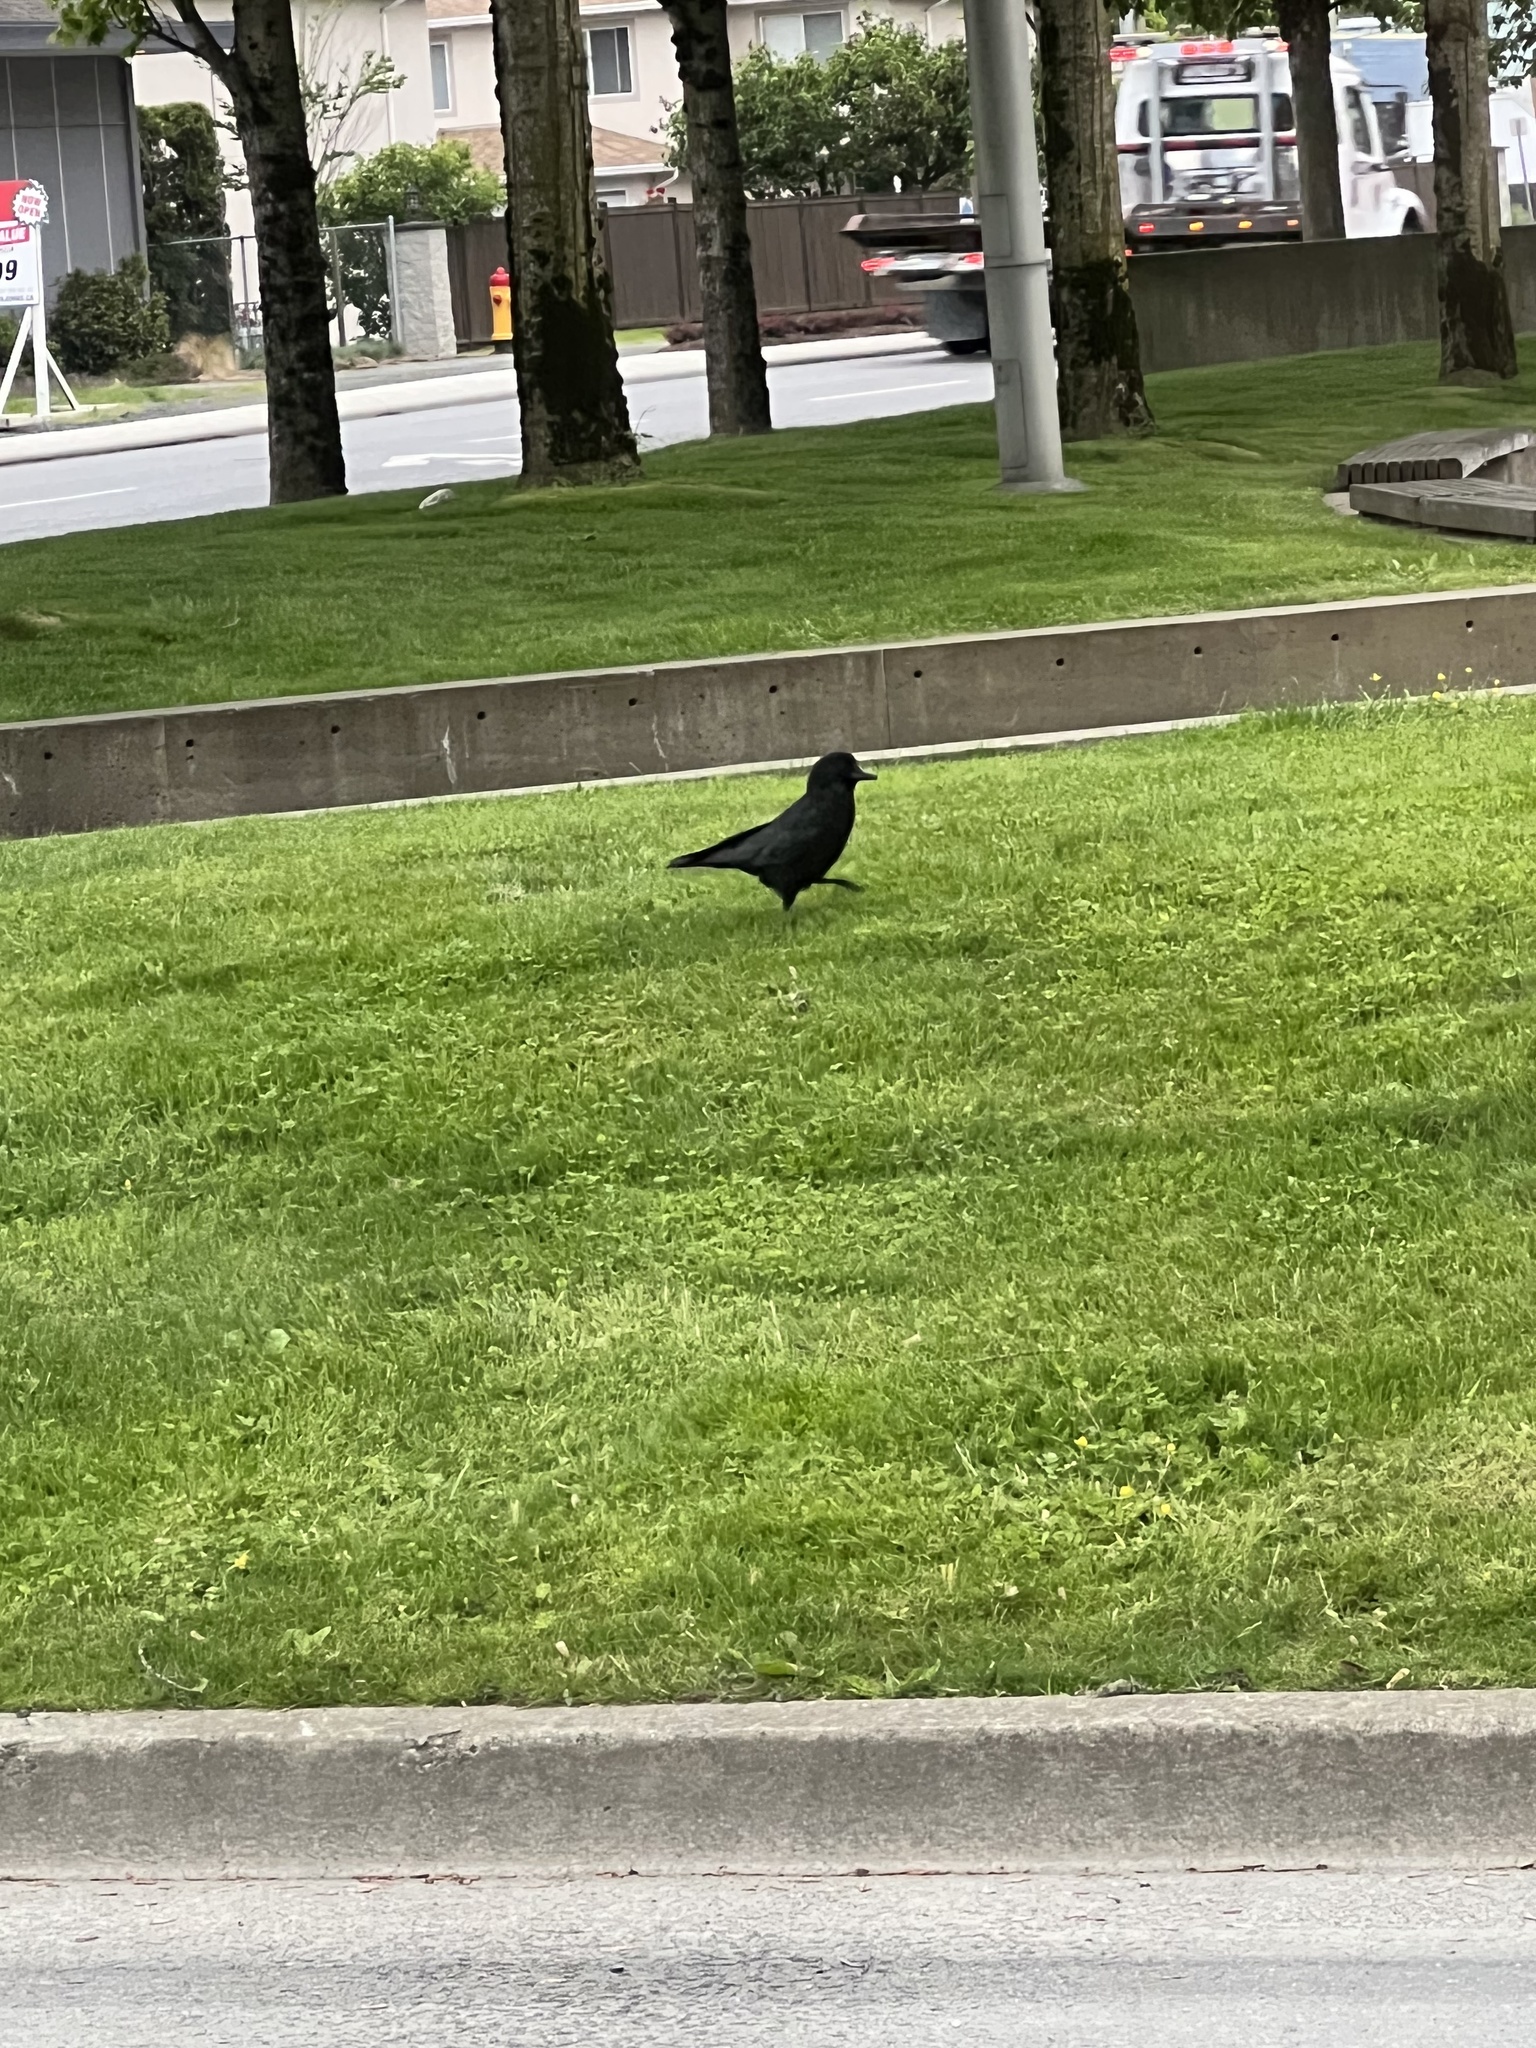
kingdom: Animalia
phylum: Chordata
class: Aves
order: Passeriformes
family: Corvidae
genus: Corvus
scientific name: Corvus brachyrhynchos
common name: American crow
